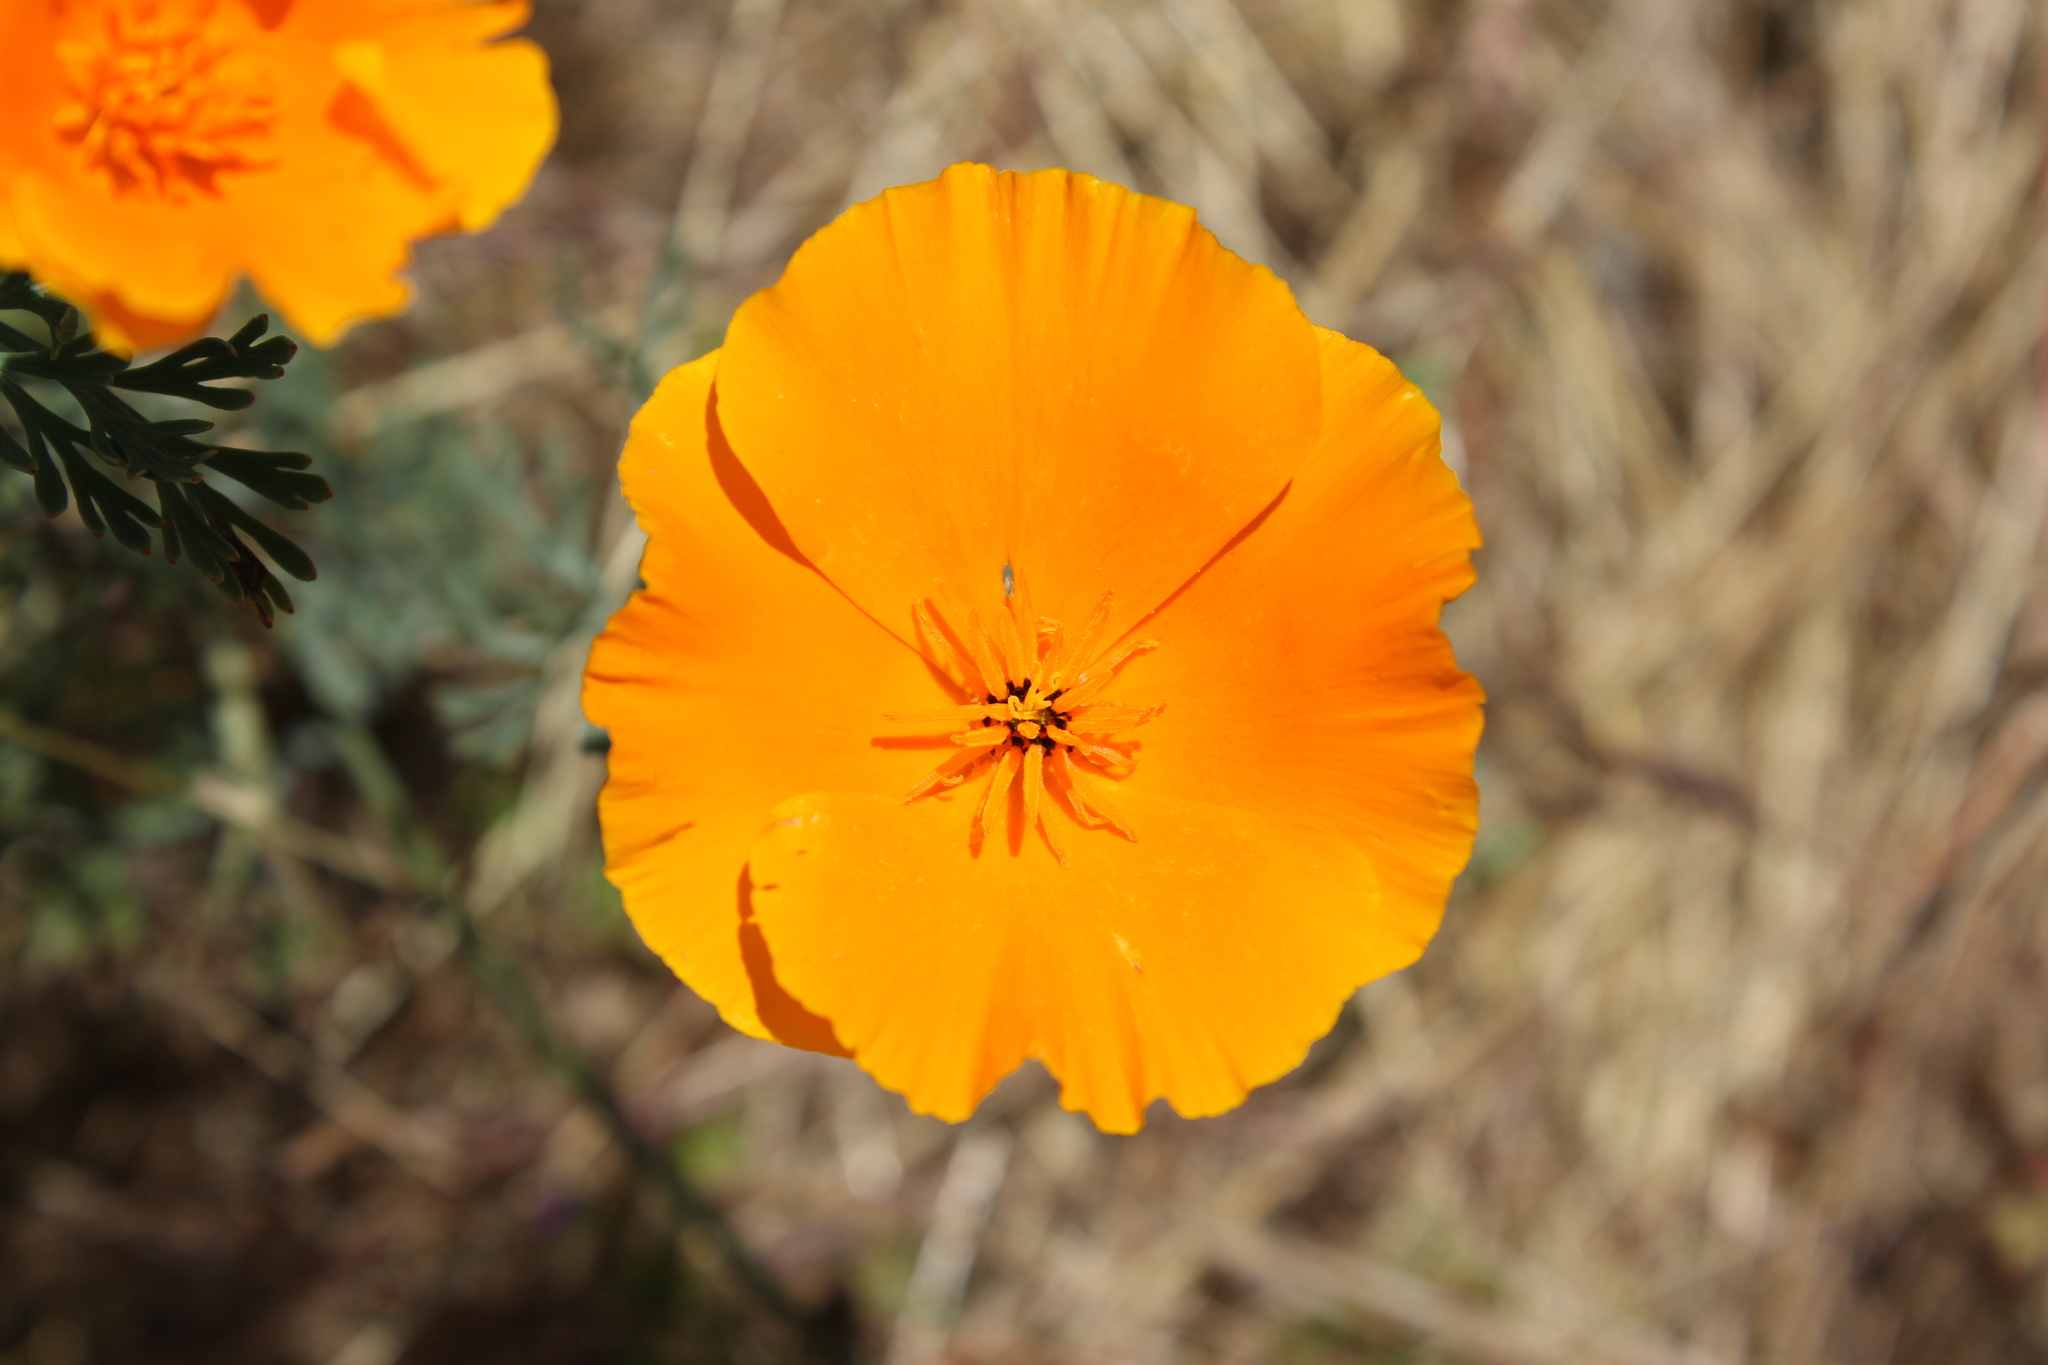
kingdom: Plantae
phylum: Tracheophyta
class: Magnoliopsida
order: Ranunculales
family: Papaveraceae
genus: Eschscholzia
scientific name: Eschscholzia californica
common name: California poppy
